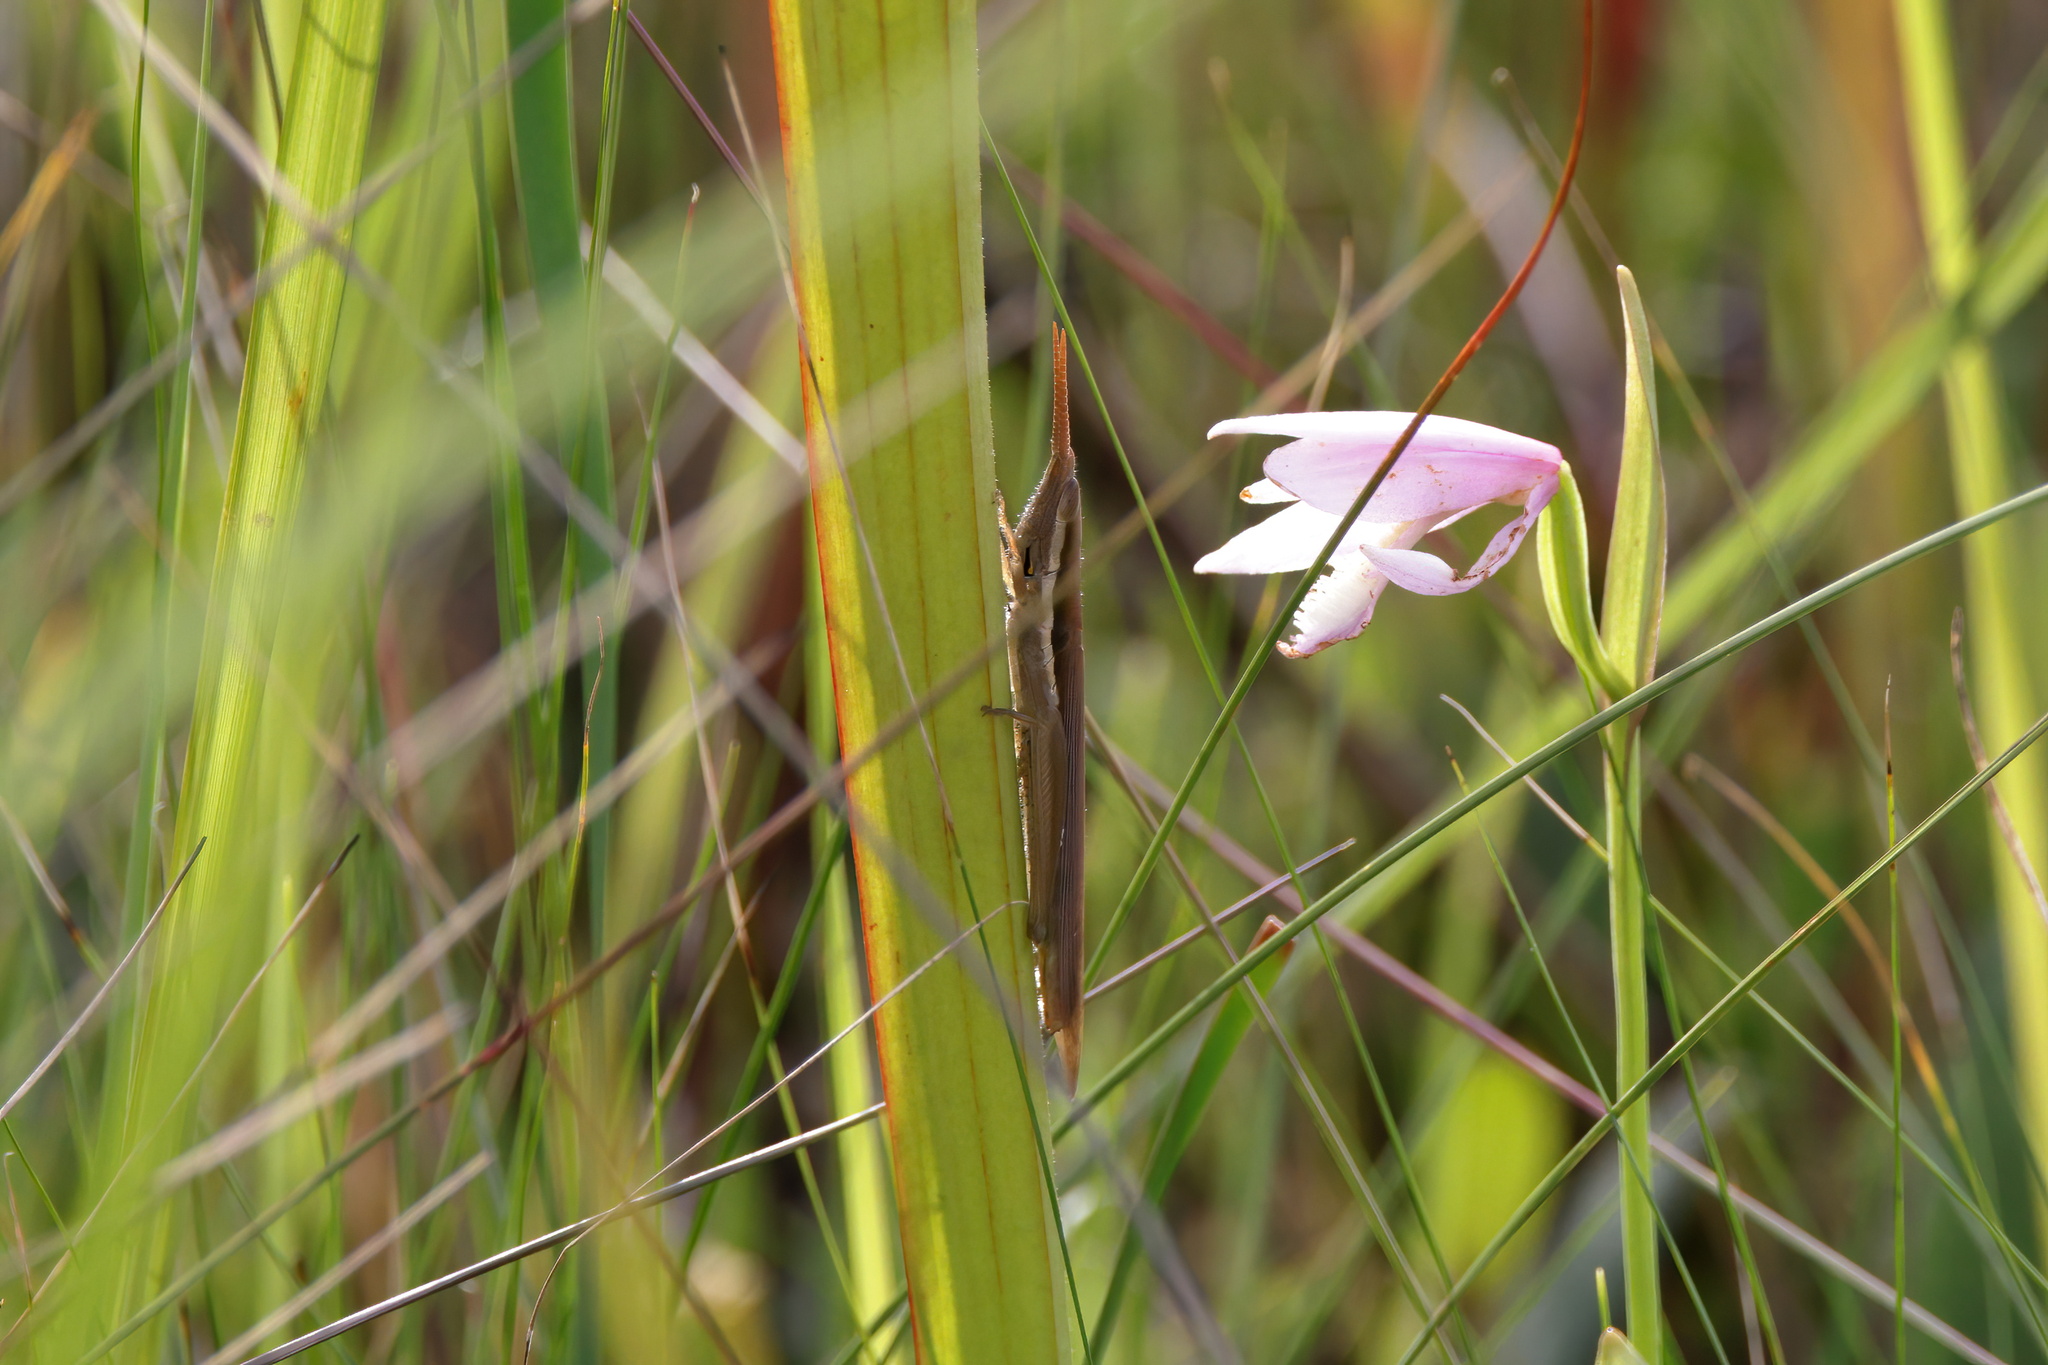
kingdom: Animalia
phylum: Arthropoda
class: Insecta
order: Orthoptera
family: Acrididae
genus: Leptysma
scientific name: Leptysma marginicollis
